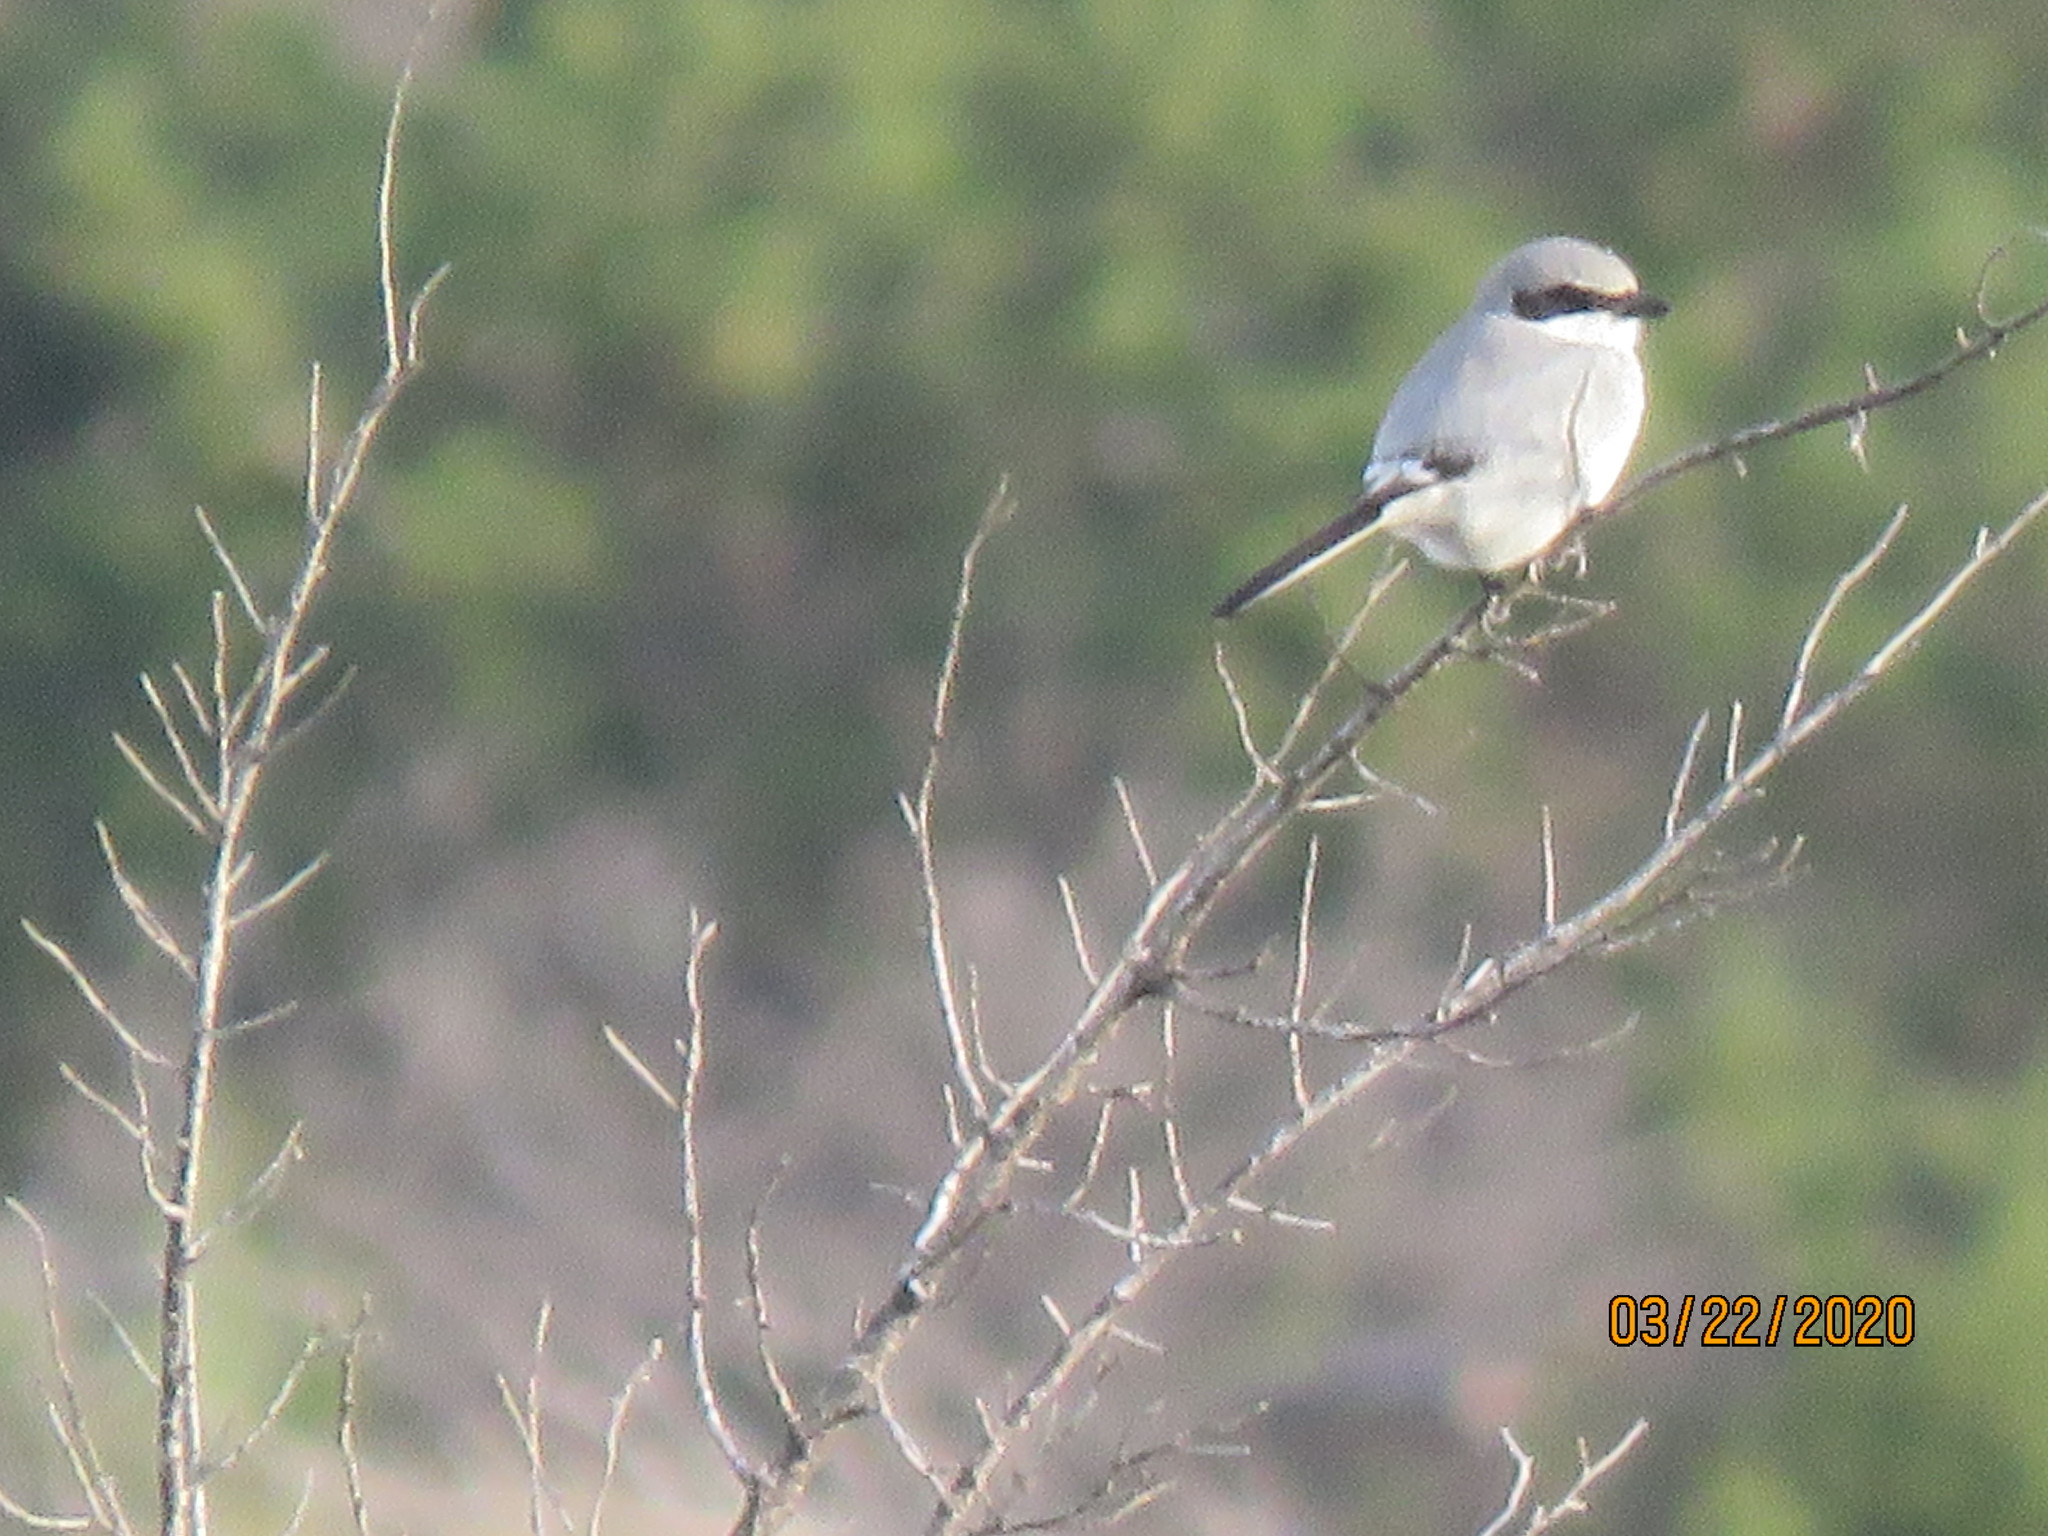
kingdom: Animalia
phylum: Chordata
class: Aves
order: Passeriformes
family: Laniidae
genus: Lanius
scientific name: Lanius ludovicianus
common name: Loggerhead shrike
